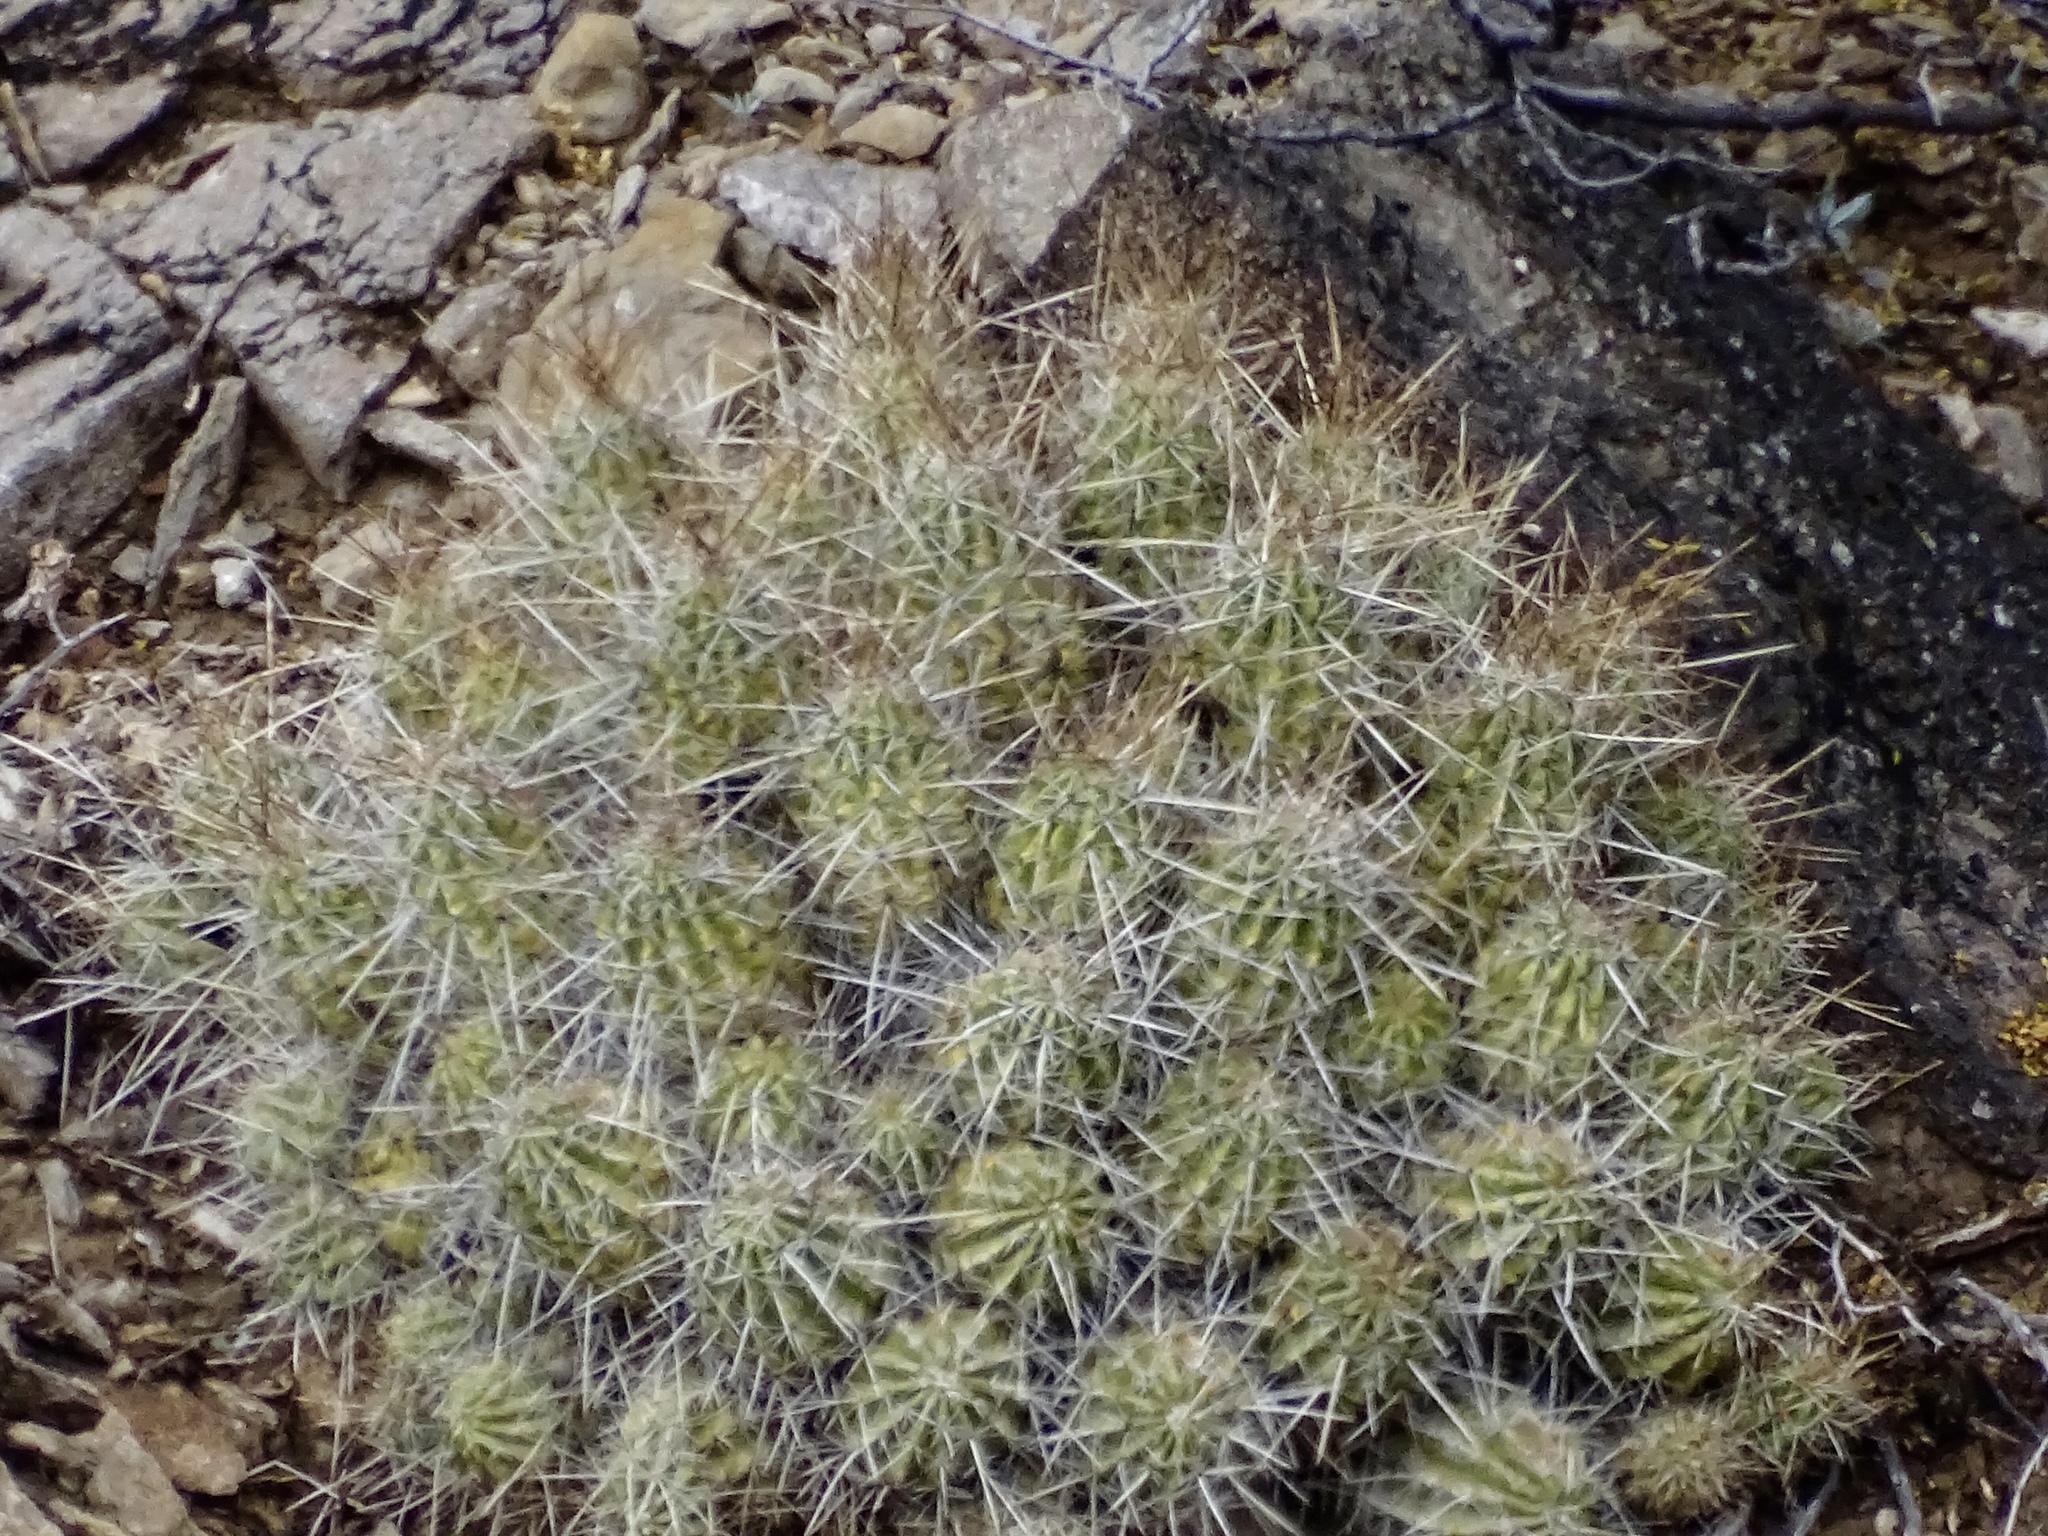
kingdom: Plantae
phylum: Tracheophyta
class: Magnoliopsida
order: Caryophyllales
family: Cactaceae
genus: Echinocereus
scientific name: Echinocereus stramineus
